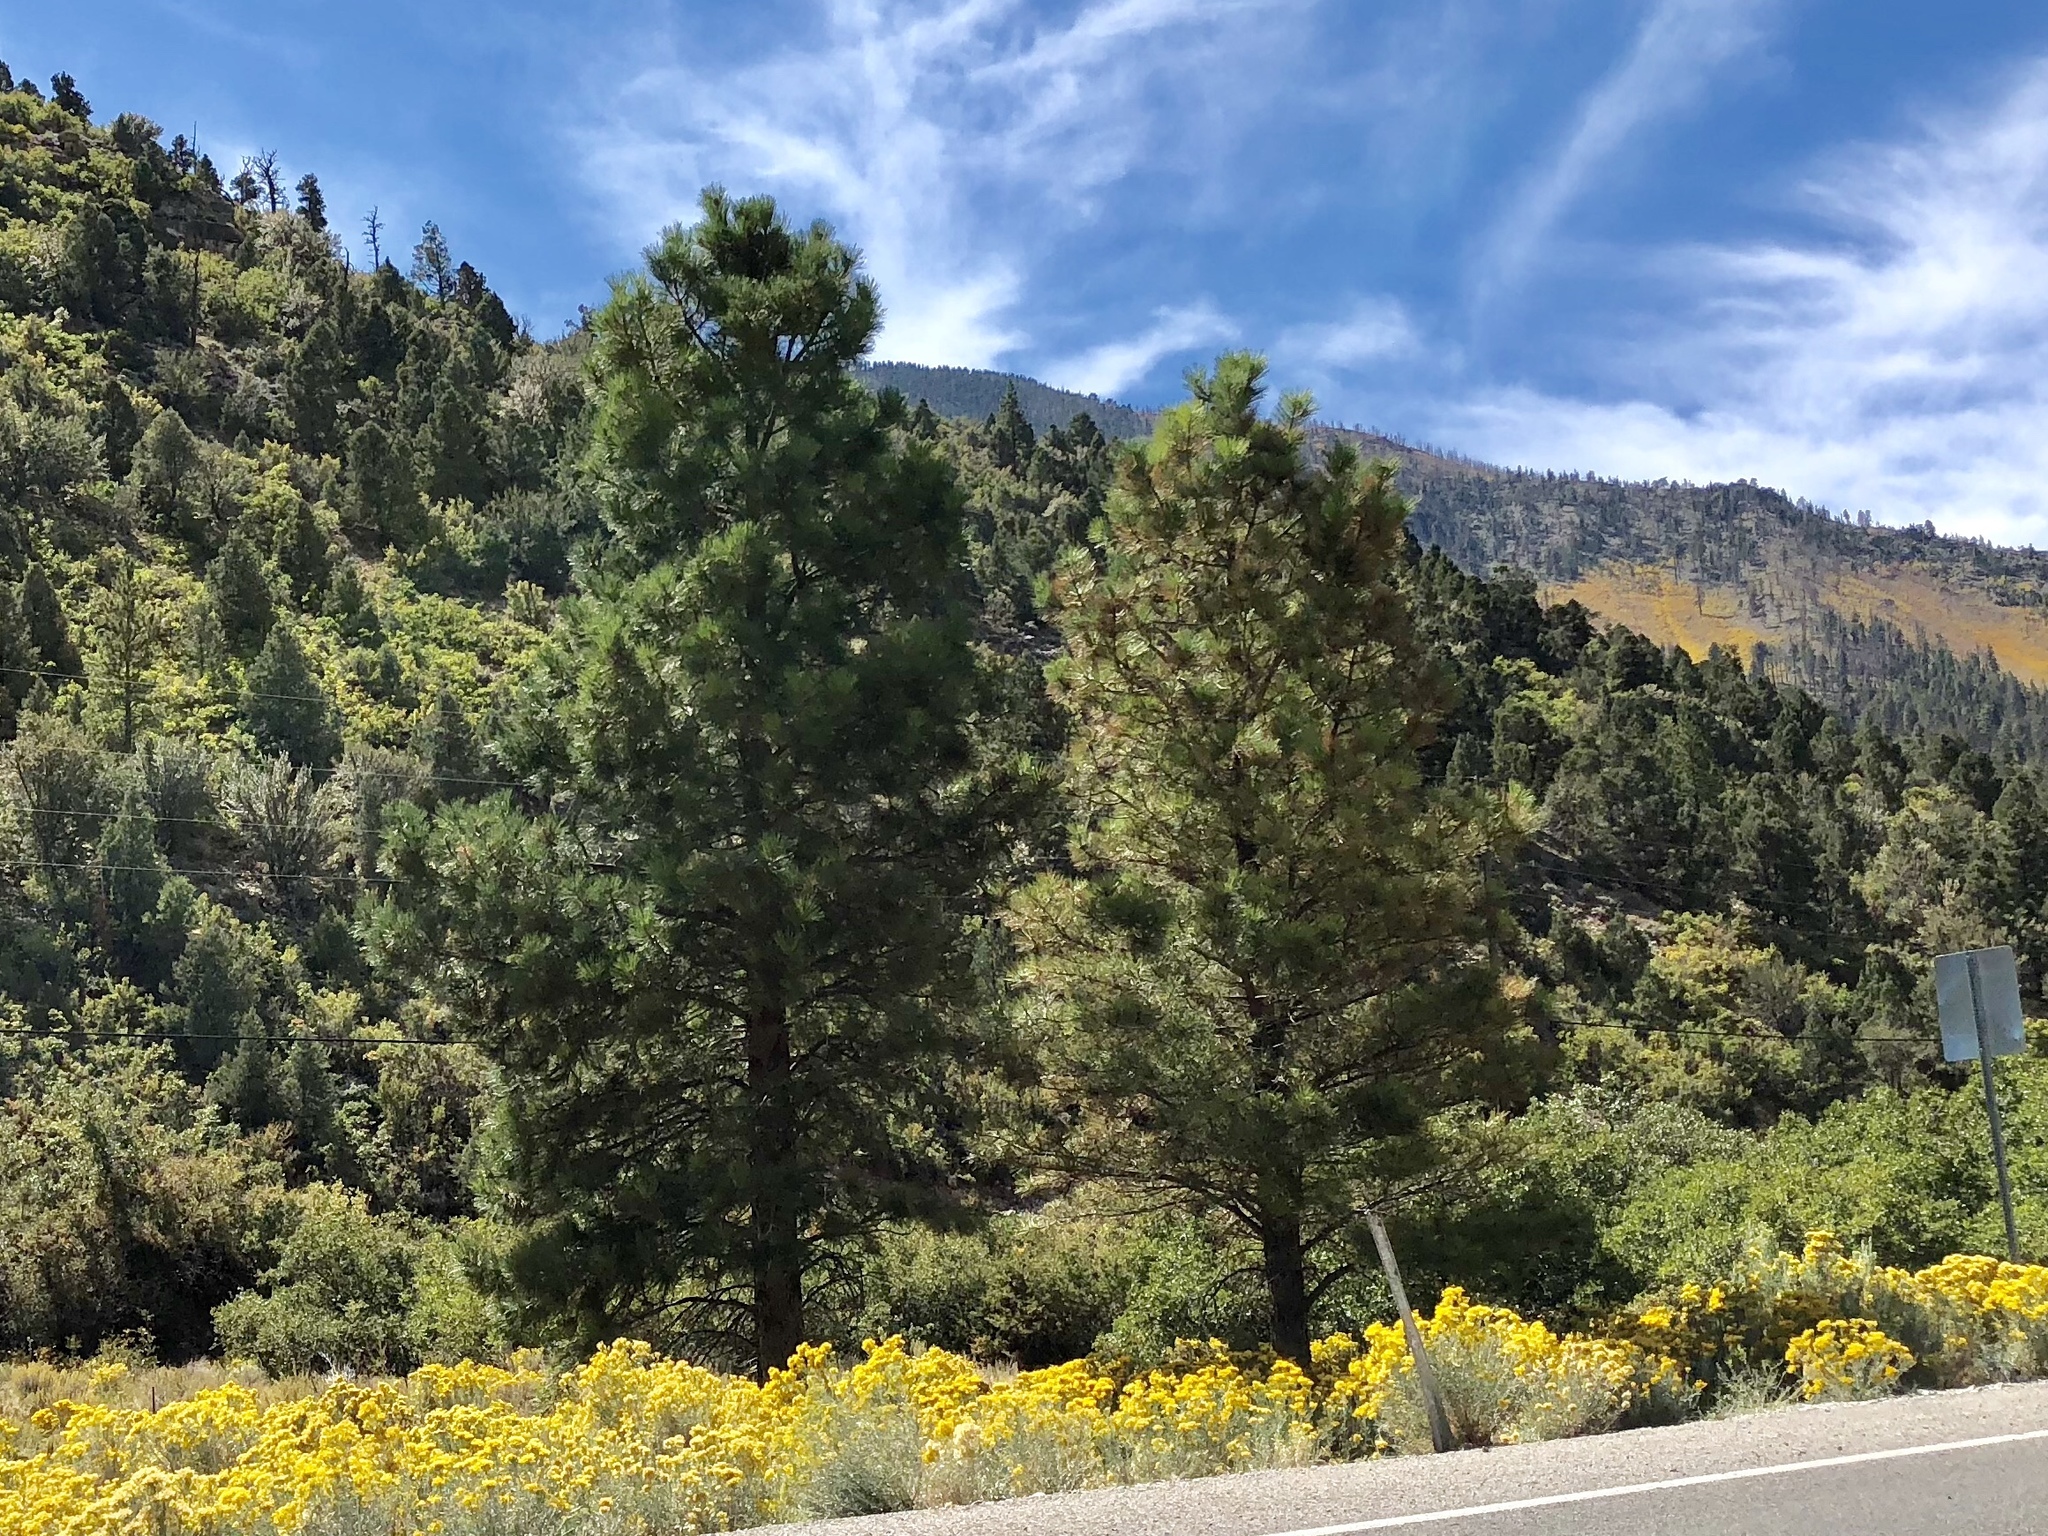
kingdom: Plantae
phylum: Tracheophyta
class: Pinopsida
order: Pinales
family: Pinaceae
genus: Pinus
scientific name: Pinus ponderosa
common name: Western yellow-pine
